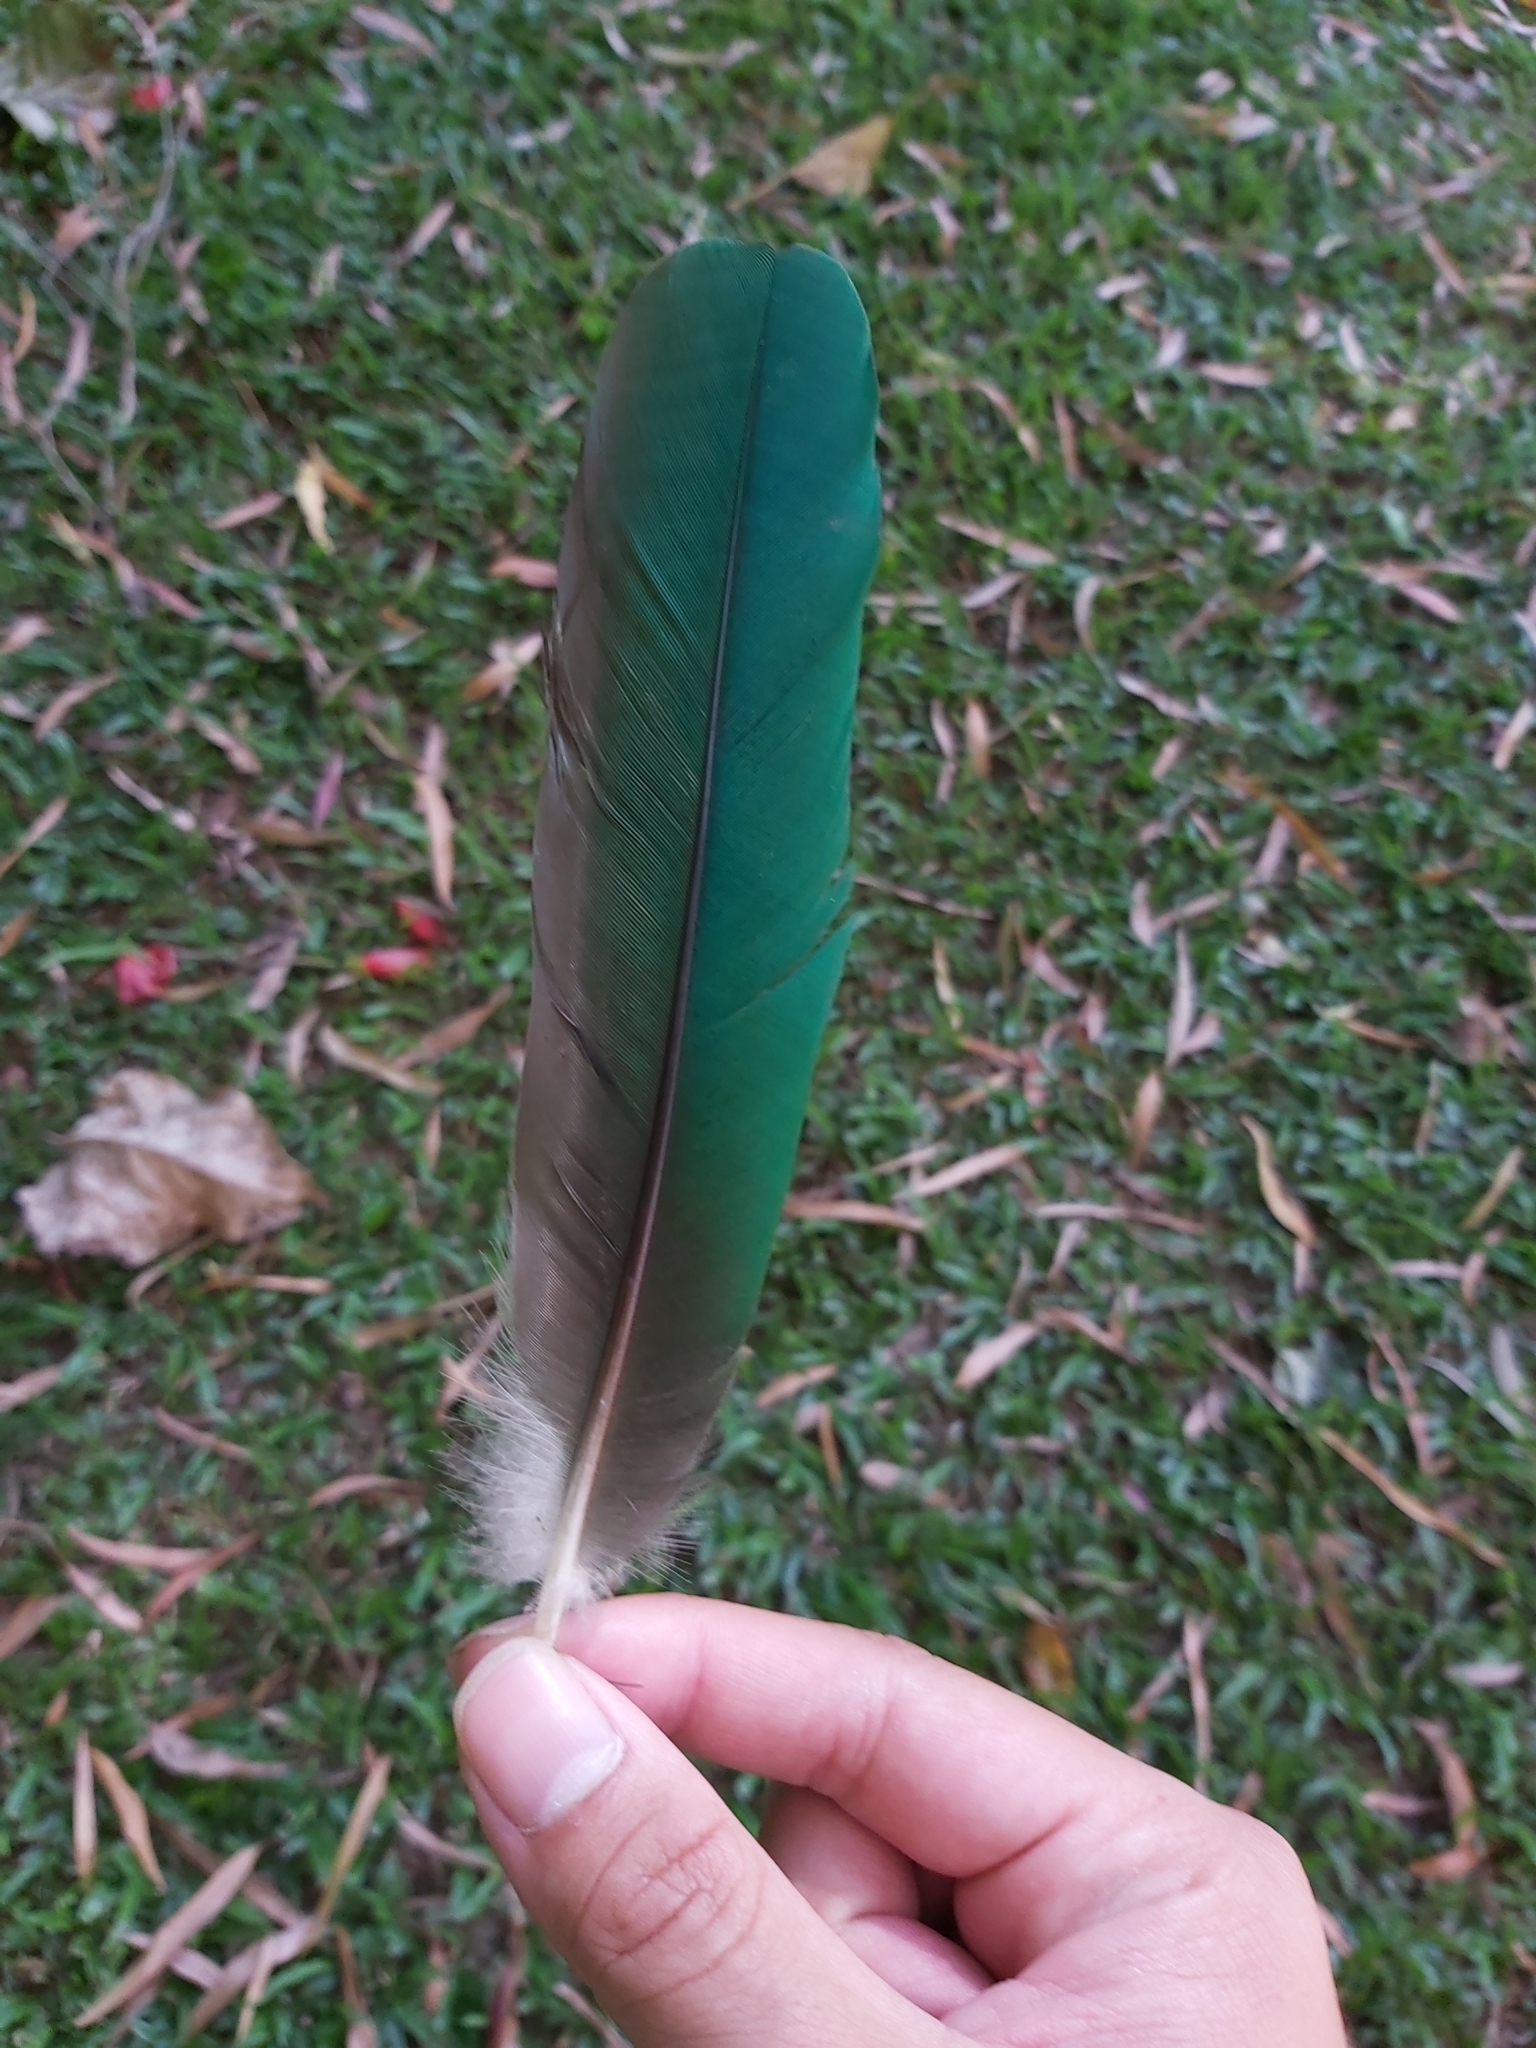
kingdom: Animalia
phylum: Chordata
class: Aves
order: Columbiformes
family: Columbidae
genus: Ptilinopus
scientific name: Ptilinopus magnificus
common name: Wompoo fruit dove
